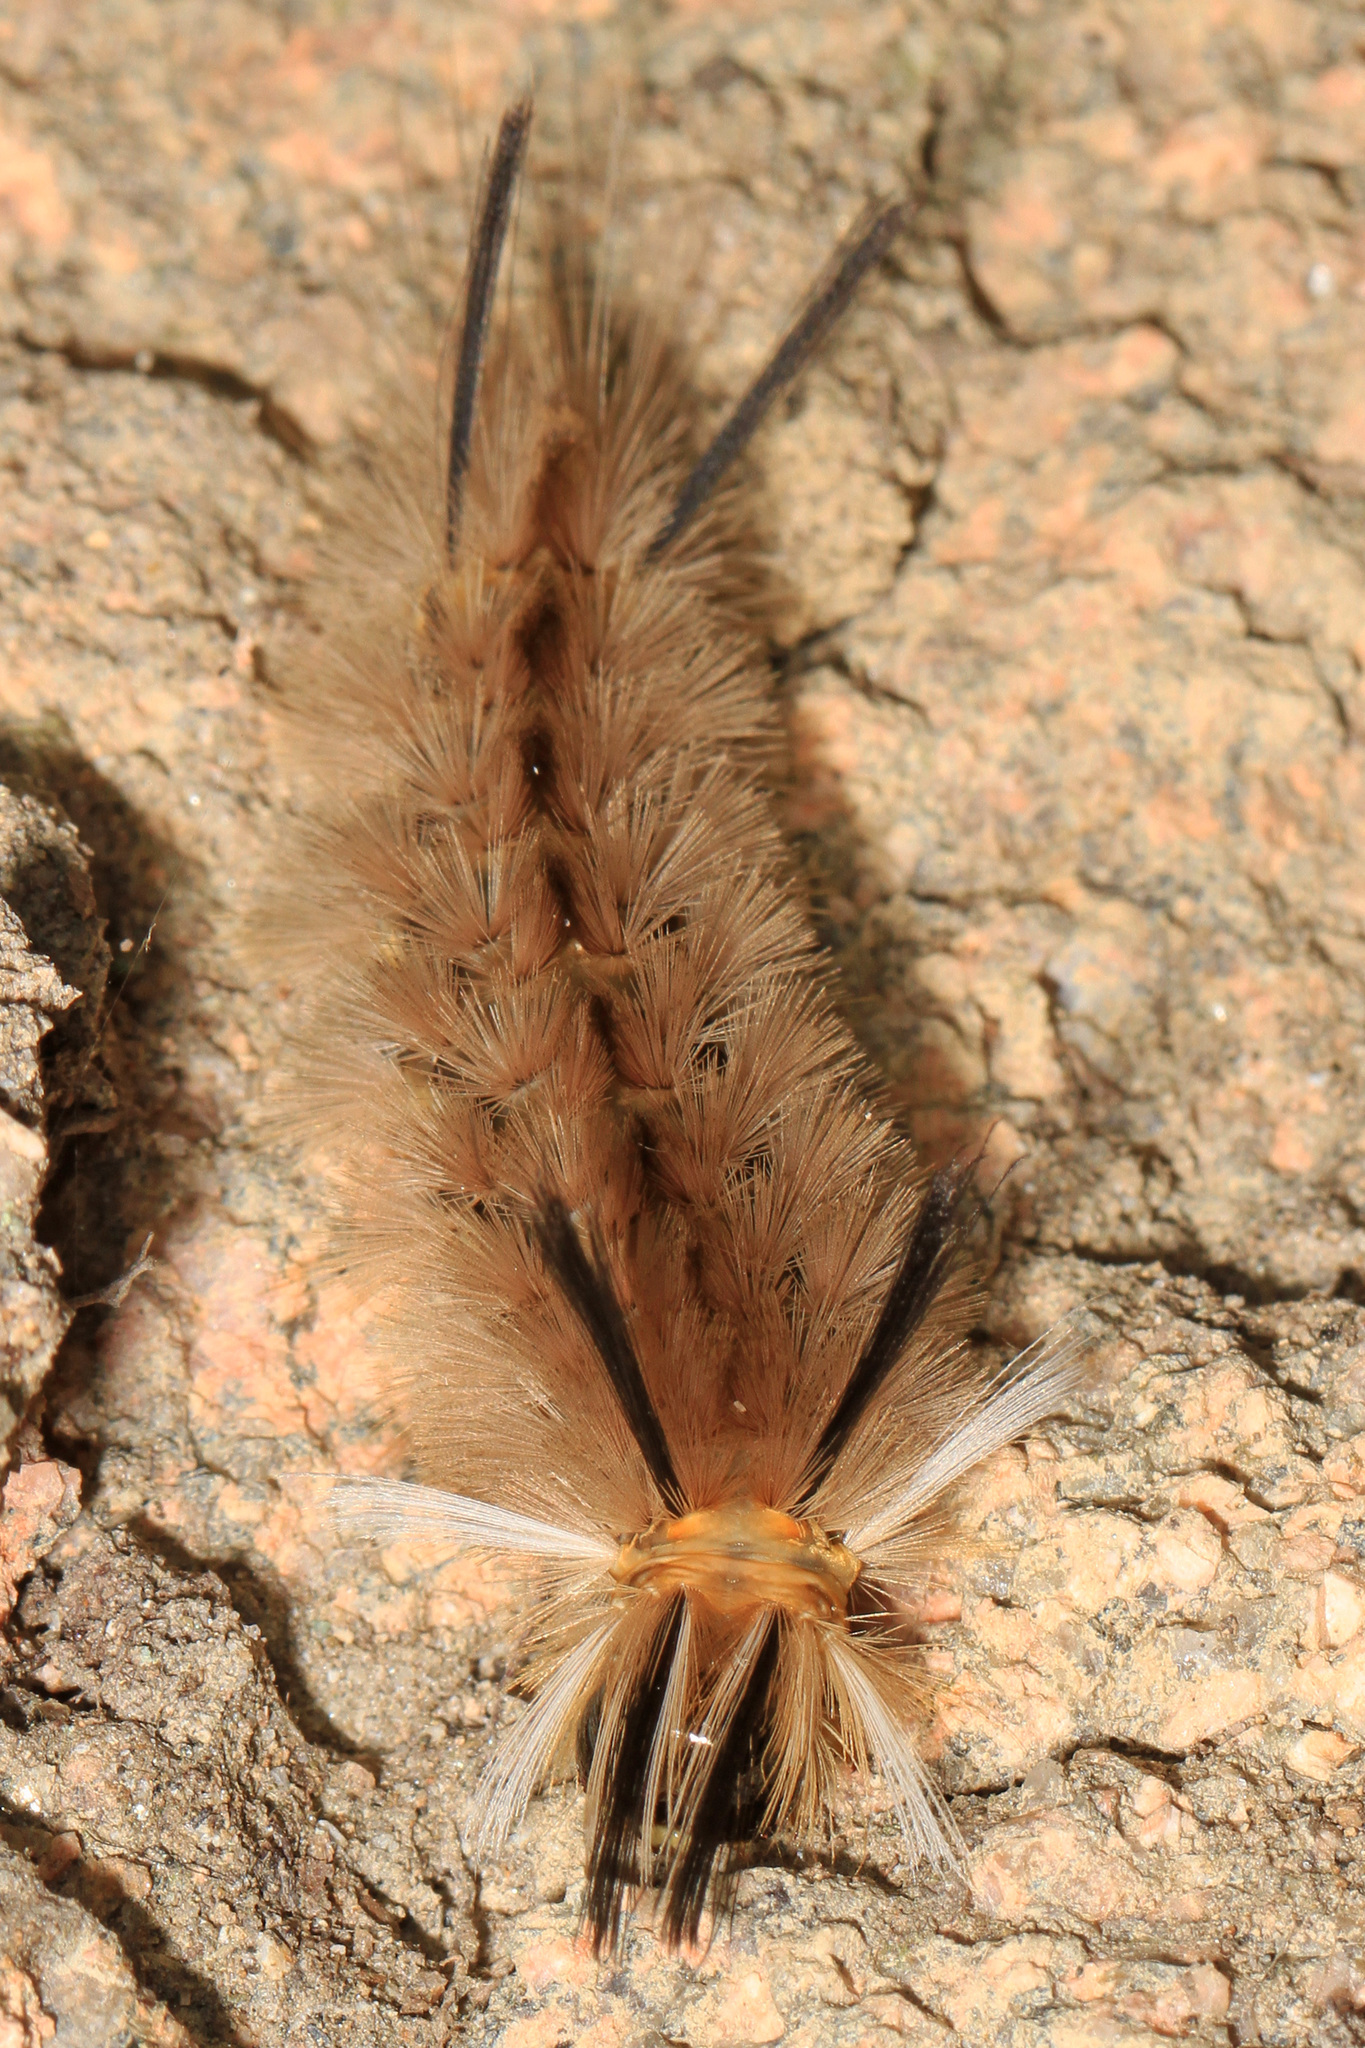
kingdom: Animalia
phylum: Arthropoda
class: Insecta
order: Lepidoptera
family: Erebidae
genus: Halysidota
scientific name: Halysidota tessellaris
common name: Banded tussock moth
